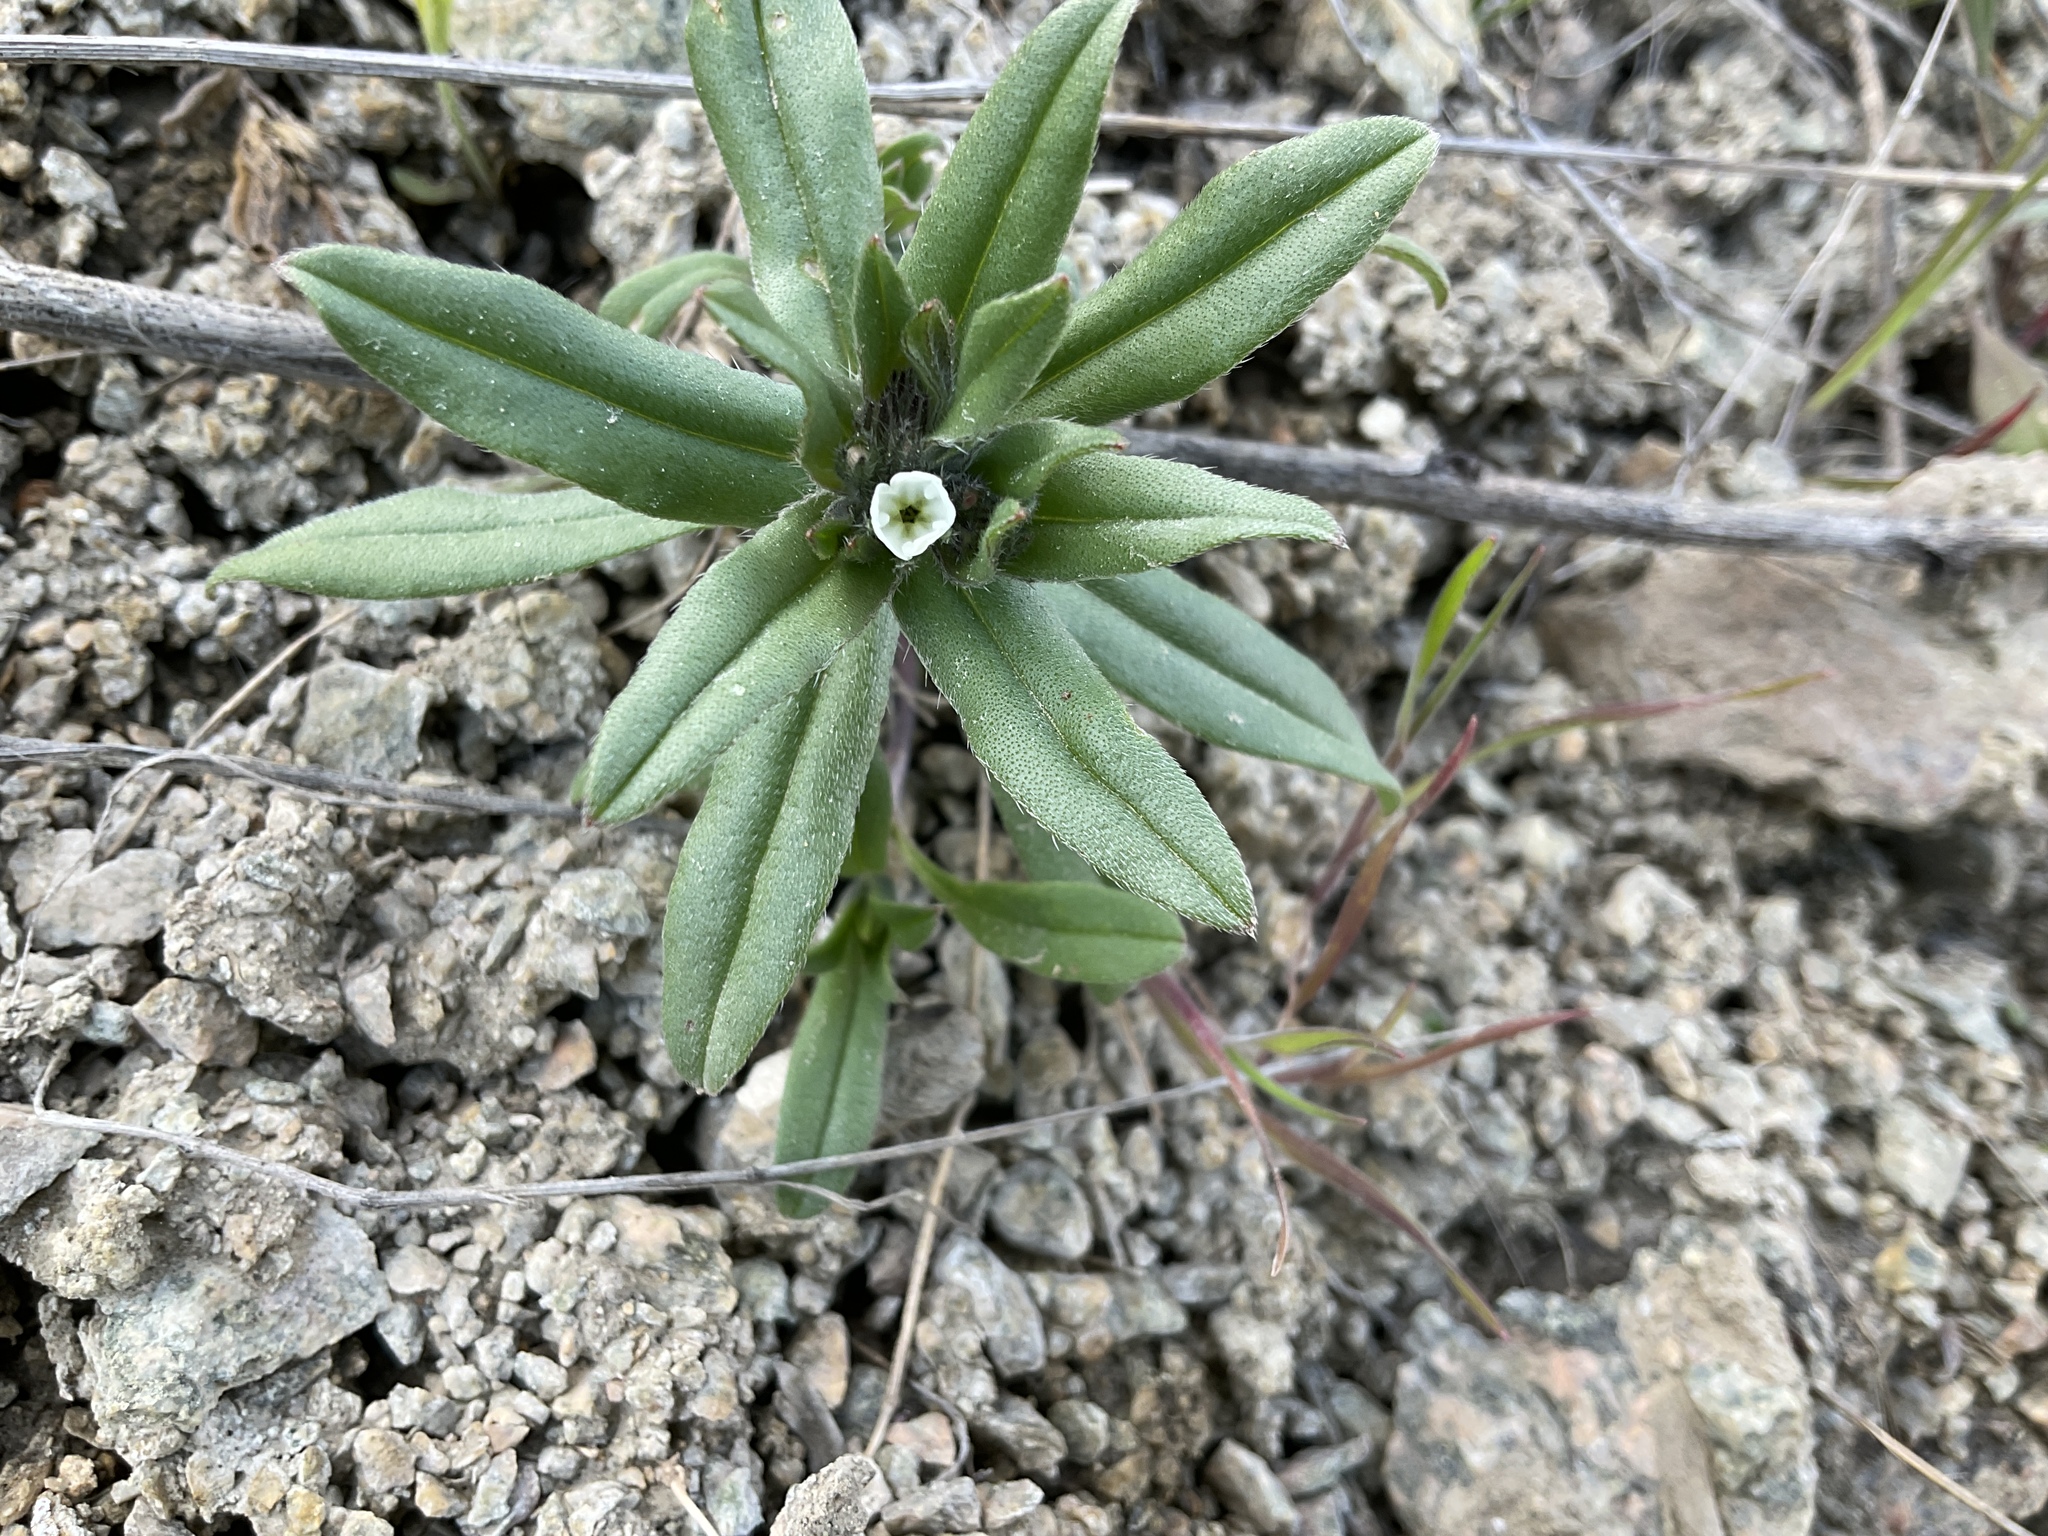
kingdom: Plantae
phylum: Tracheophyta
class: Magnoliopsida
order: Boraginales
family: Boraginaceae
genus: Buglossoides
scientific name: Buglossoides arvensis
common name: Corn gromwell
